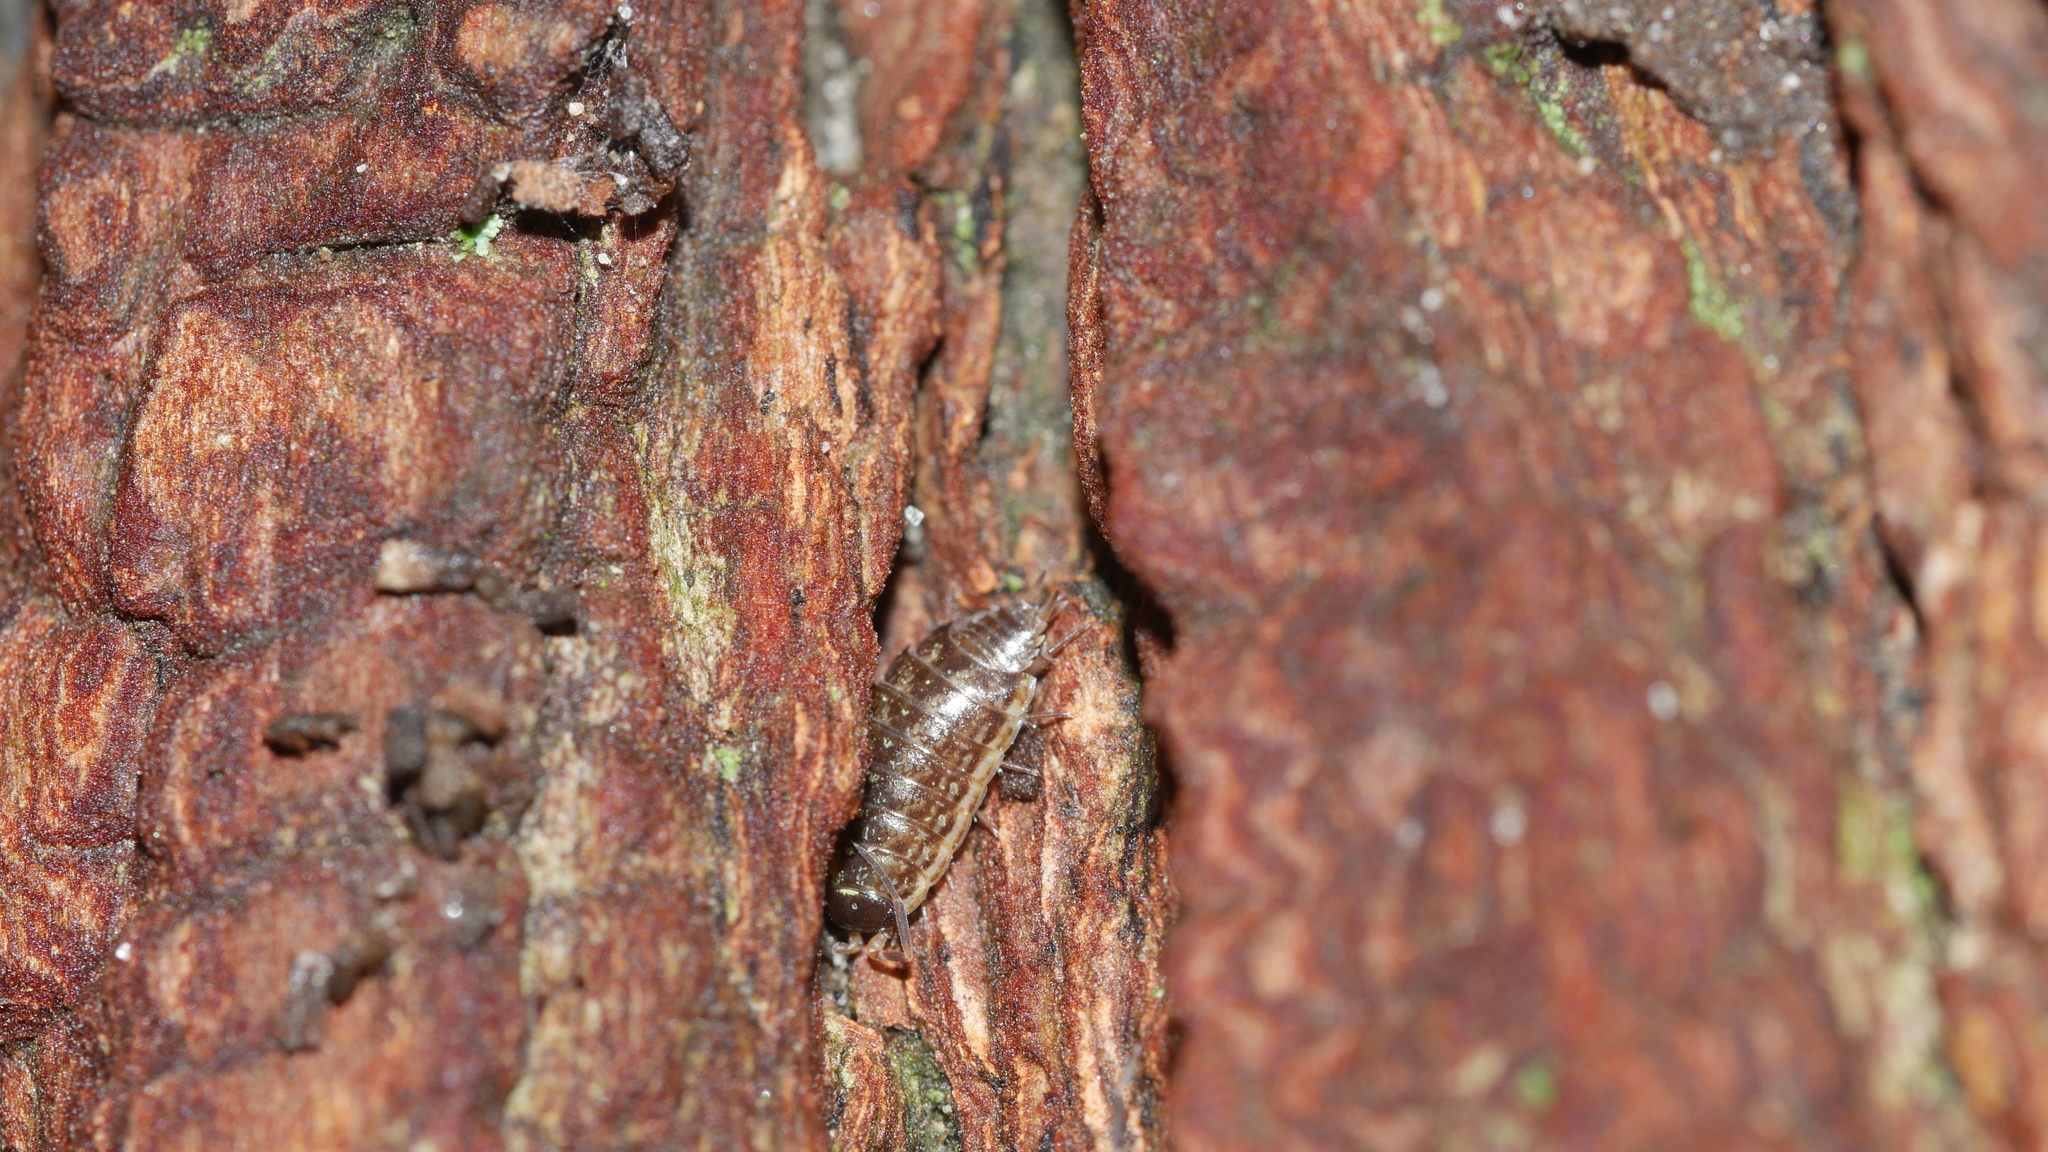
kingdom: Animalia
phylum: Arthropoda
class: Malacostraca
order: Isopoda
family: Philosciidae
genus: Philoscia
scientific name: Philoscia muscorum
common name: Common striped woodlouse
